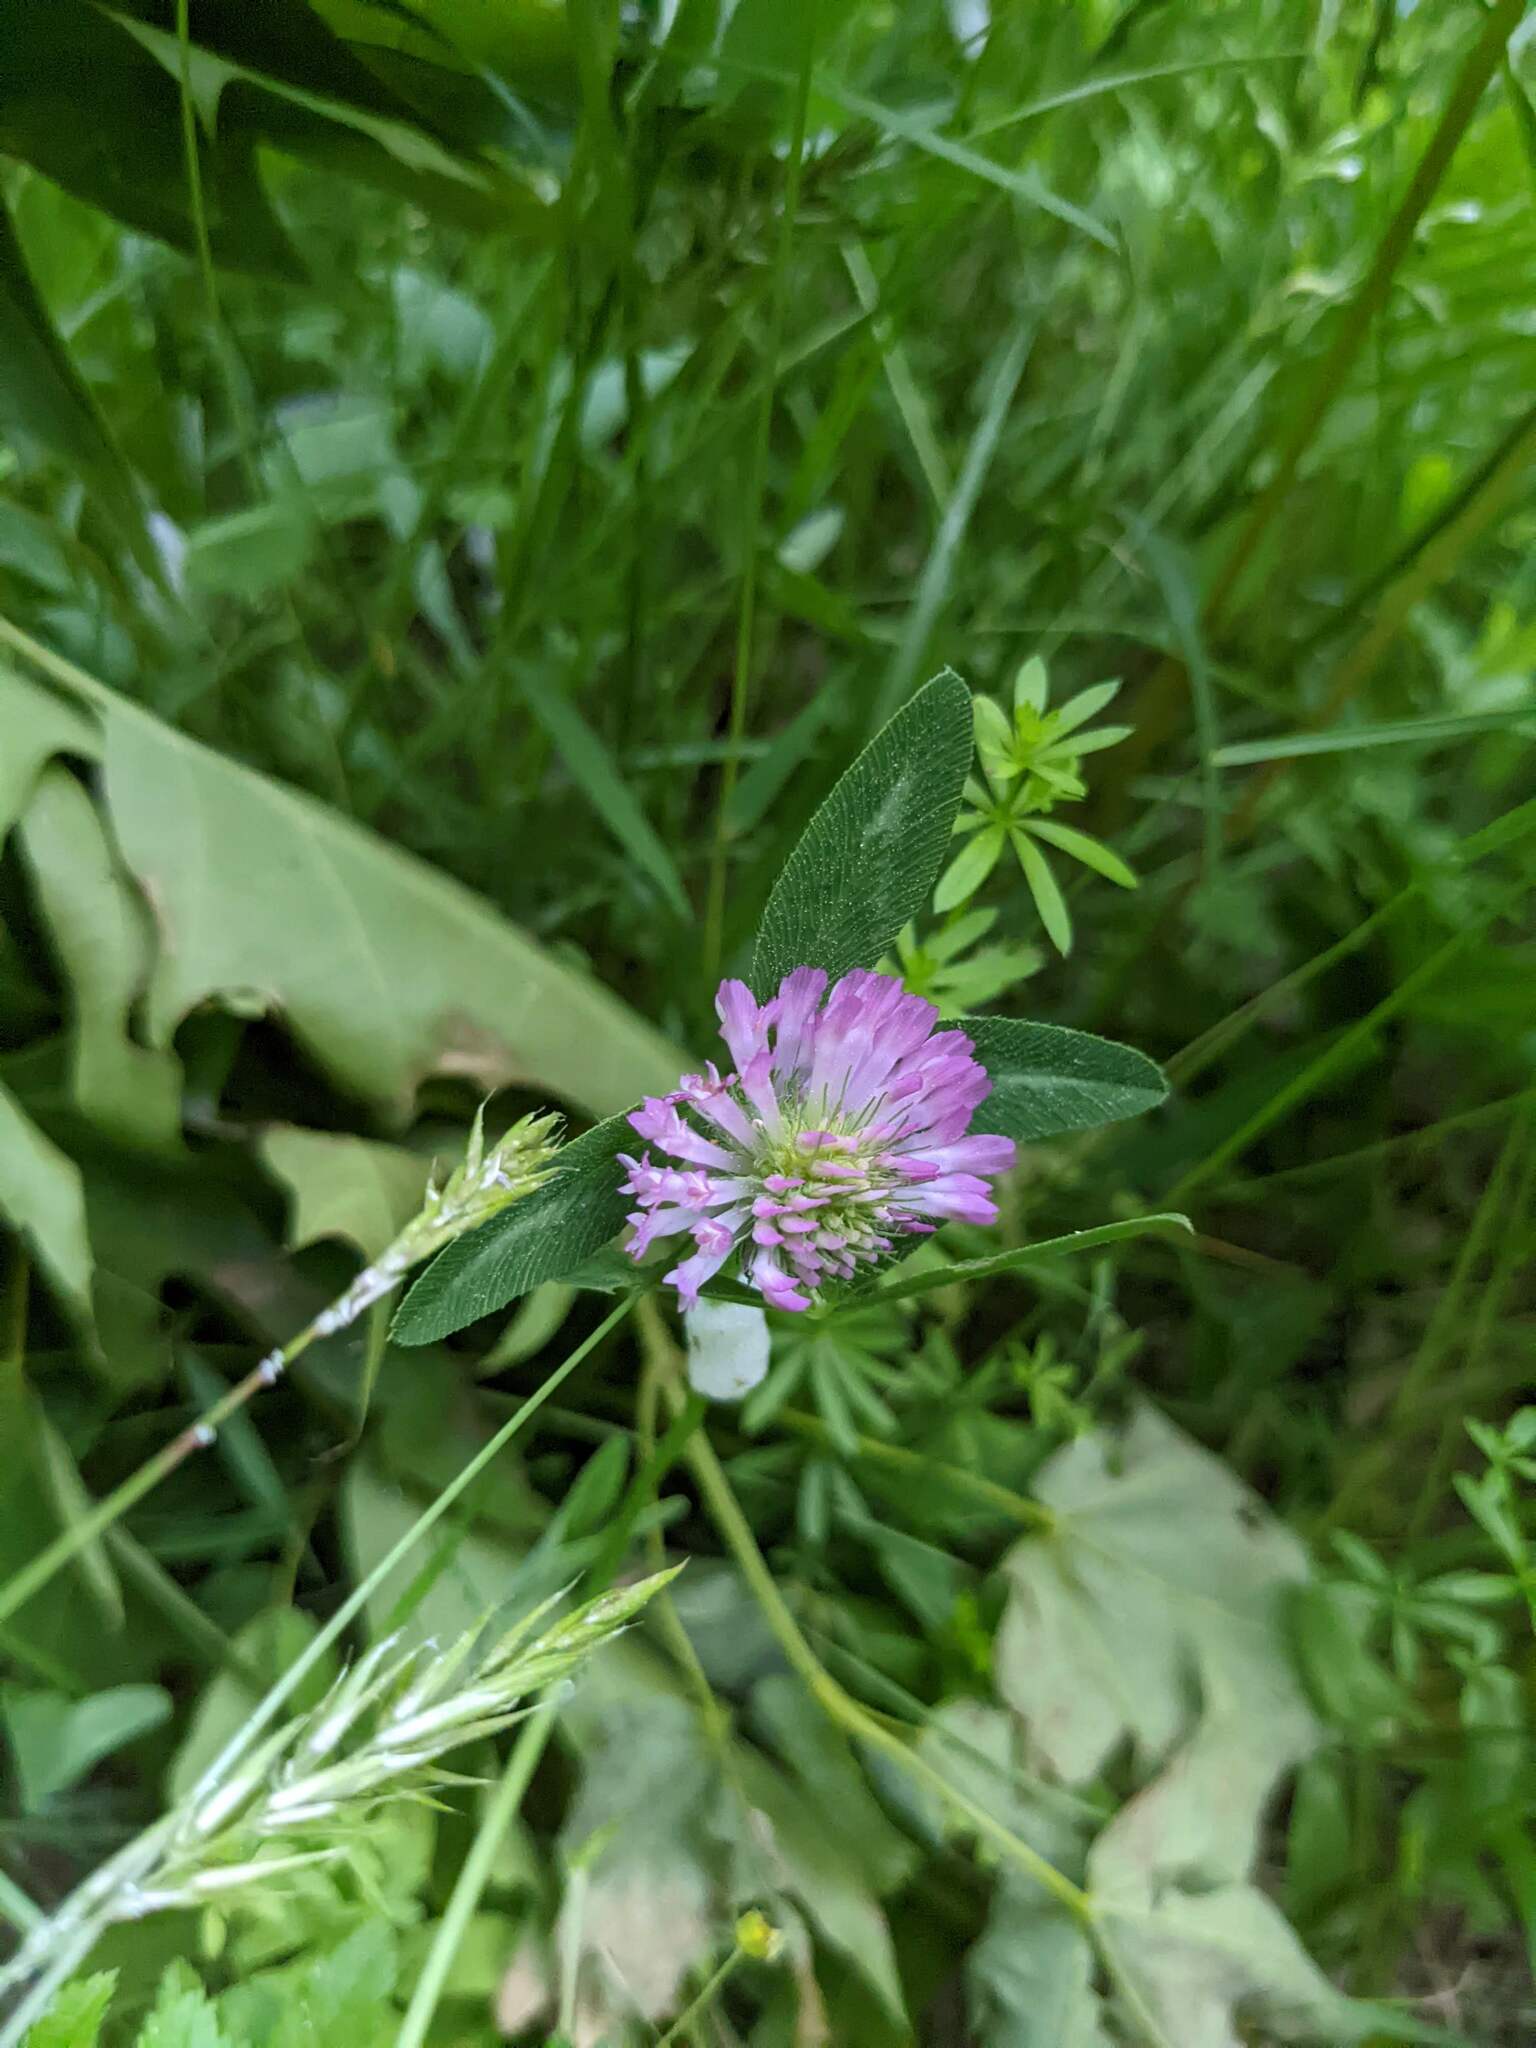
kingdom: Plantae
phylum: Tracheophyta
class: Magnoliopsida
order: Fabales
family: Fabaceae
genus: Trifolium
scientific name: Trifolium pratense
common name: Red clover
